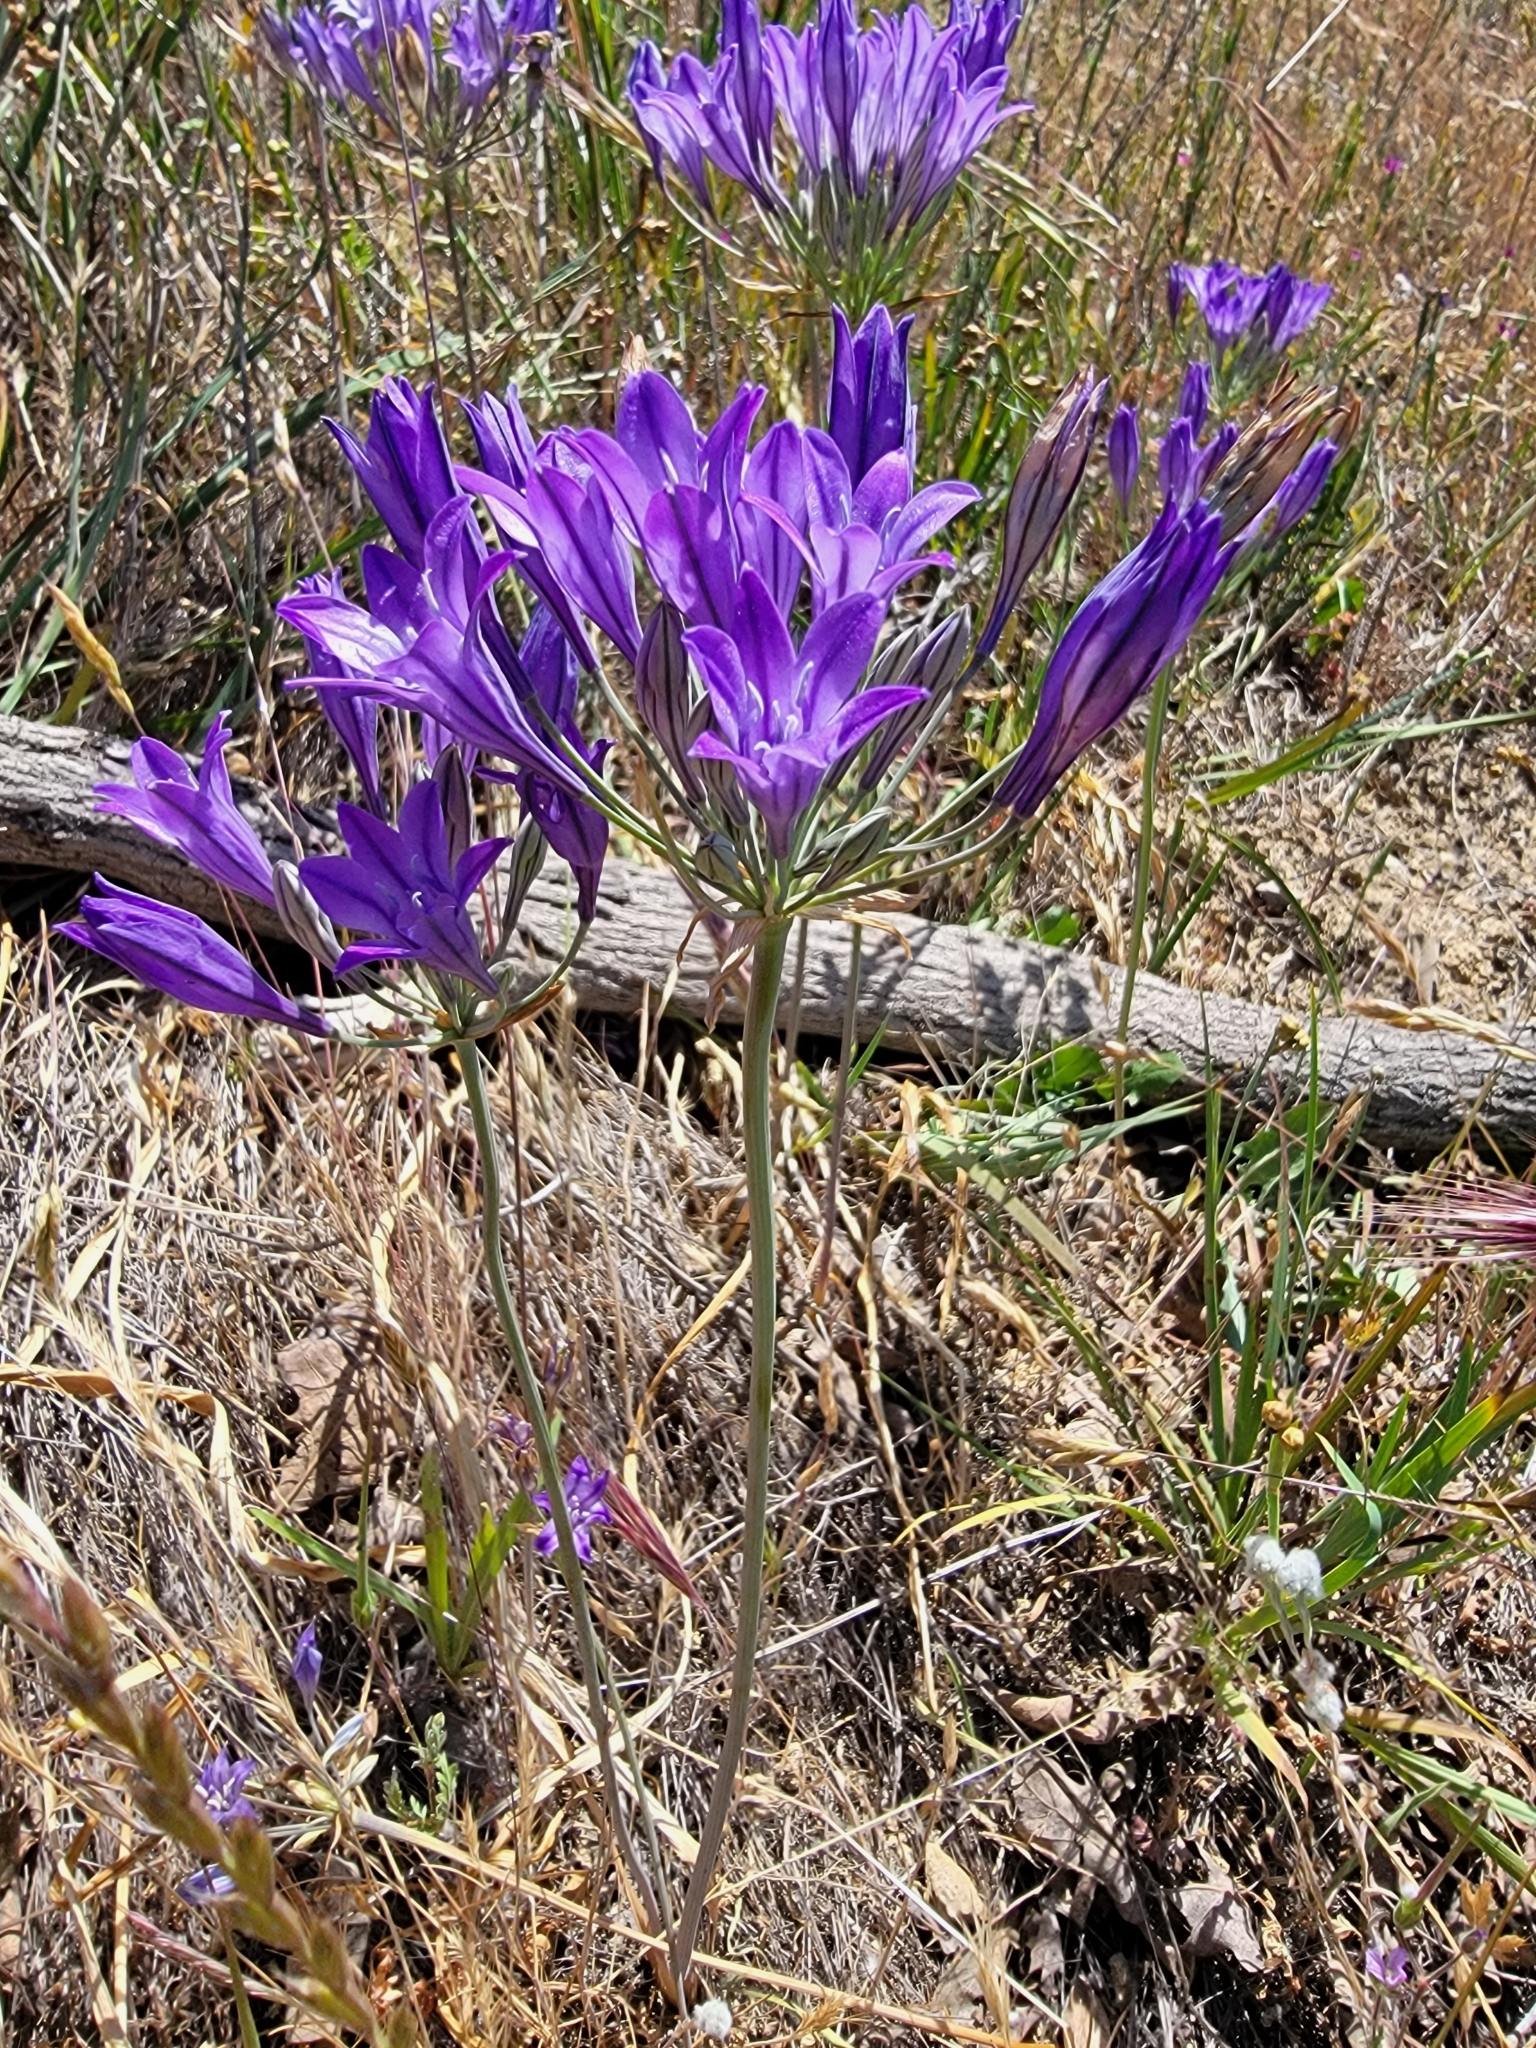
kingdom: Plantae
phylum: Tracheophyta
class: Liliopsida
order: Asparagales
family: Asparagaceae
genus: Triteleia
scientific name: Triteleia laxa
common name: Triplet-lily
